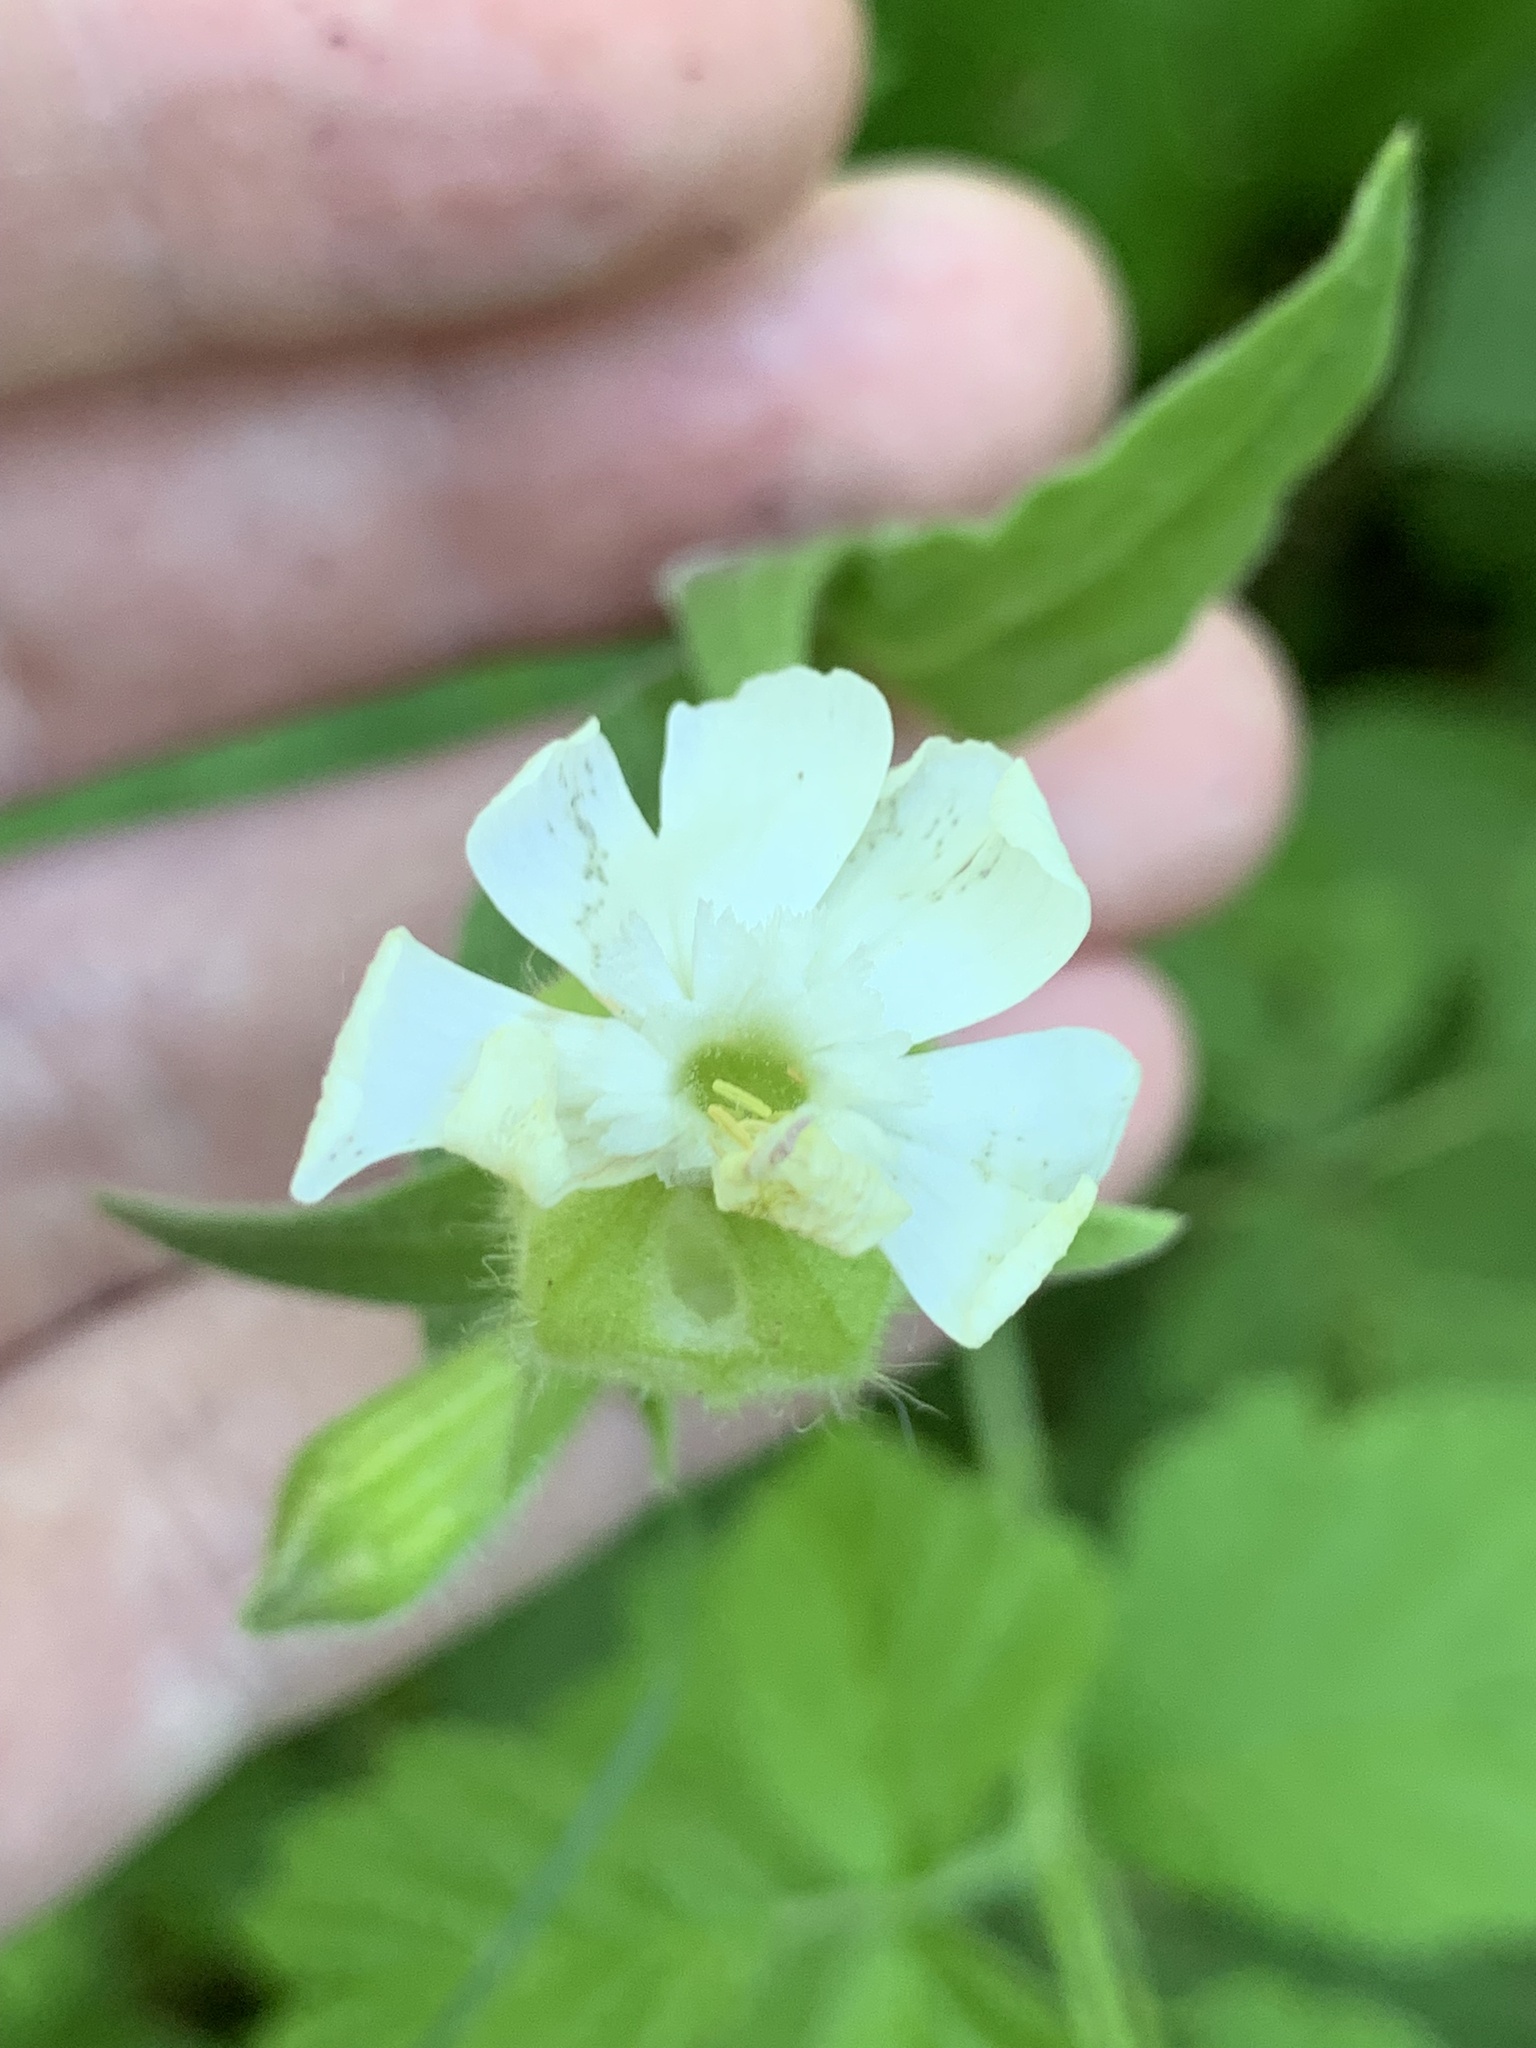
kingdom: Plantae
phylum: Tracheophyta
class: Magnoliopsida
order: Caryophyllales
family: Caryophyllaceae
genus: Silene
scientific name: Silene latifolia
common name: White campion
